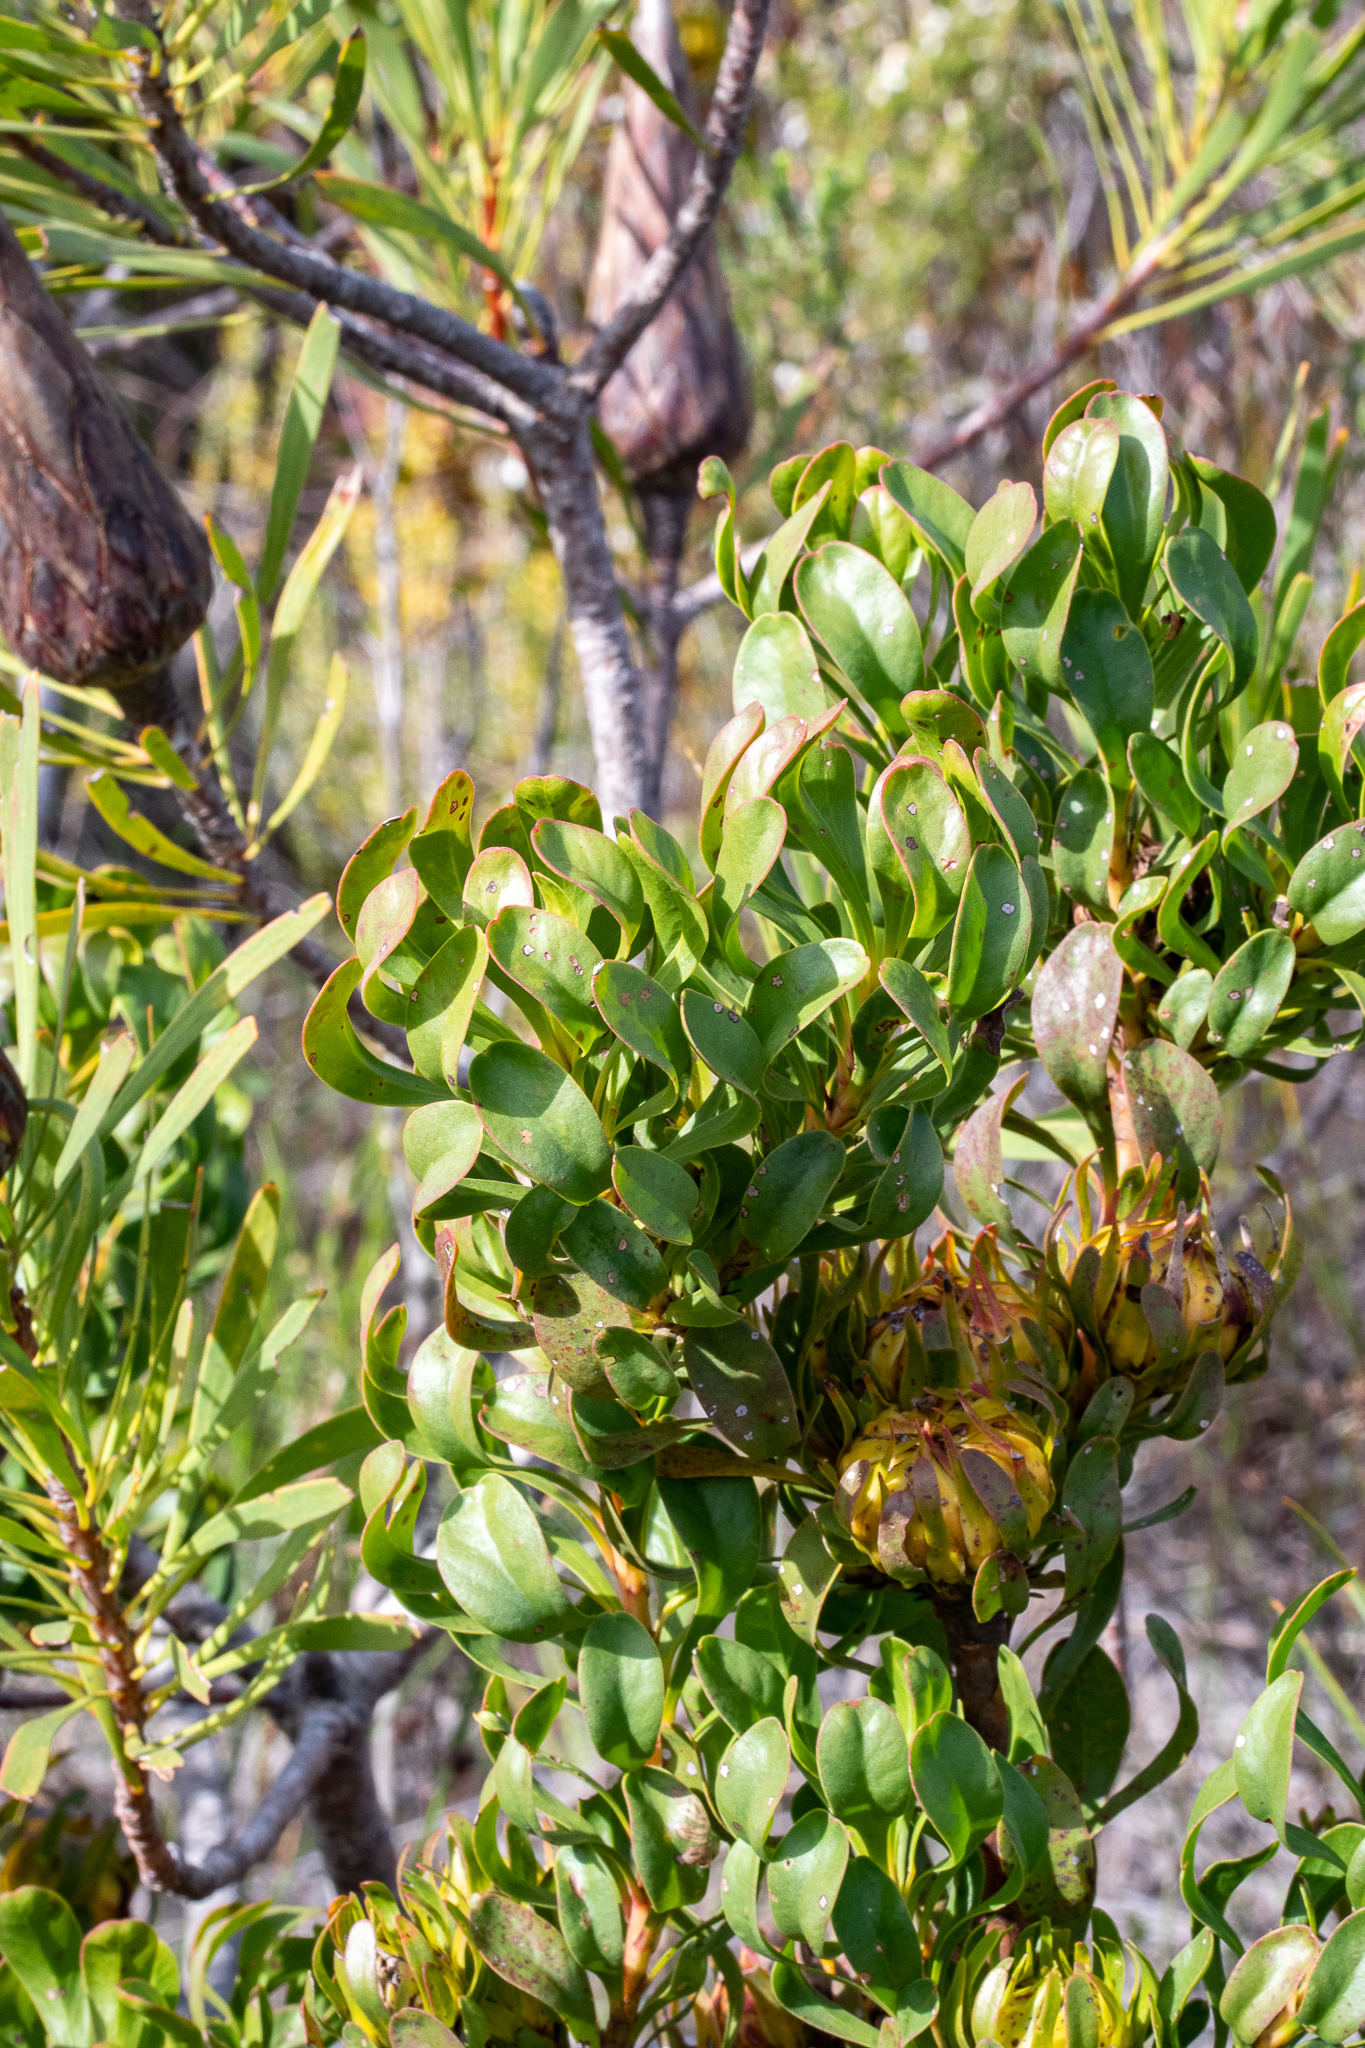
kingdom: Plantae
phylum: Tracheophyta
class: Magnoliopsida
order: Proteales
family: Proteaceae
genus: Aulax
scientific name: Aulax umbellata
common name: Broad-leaf featherbush
